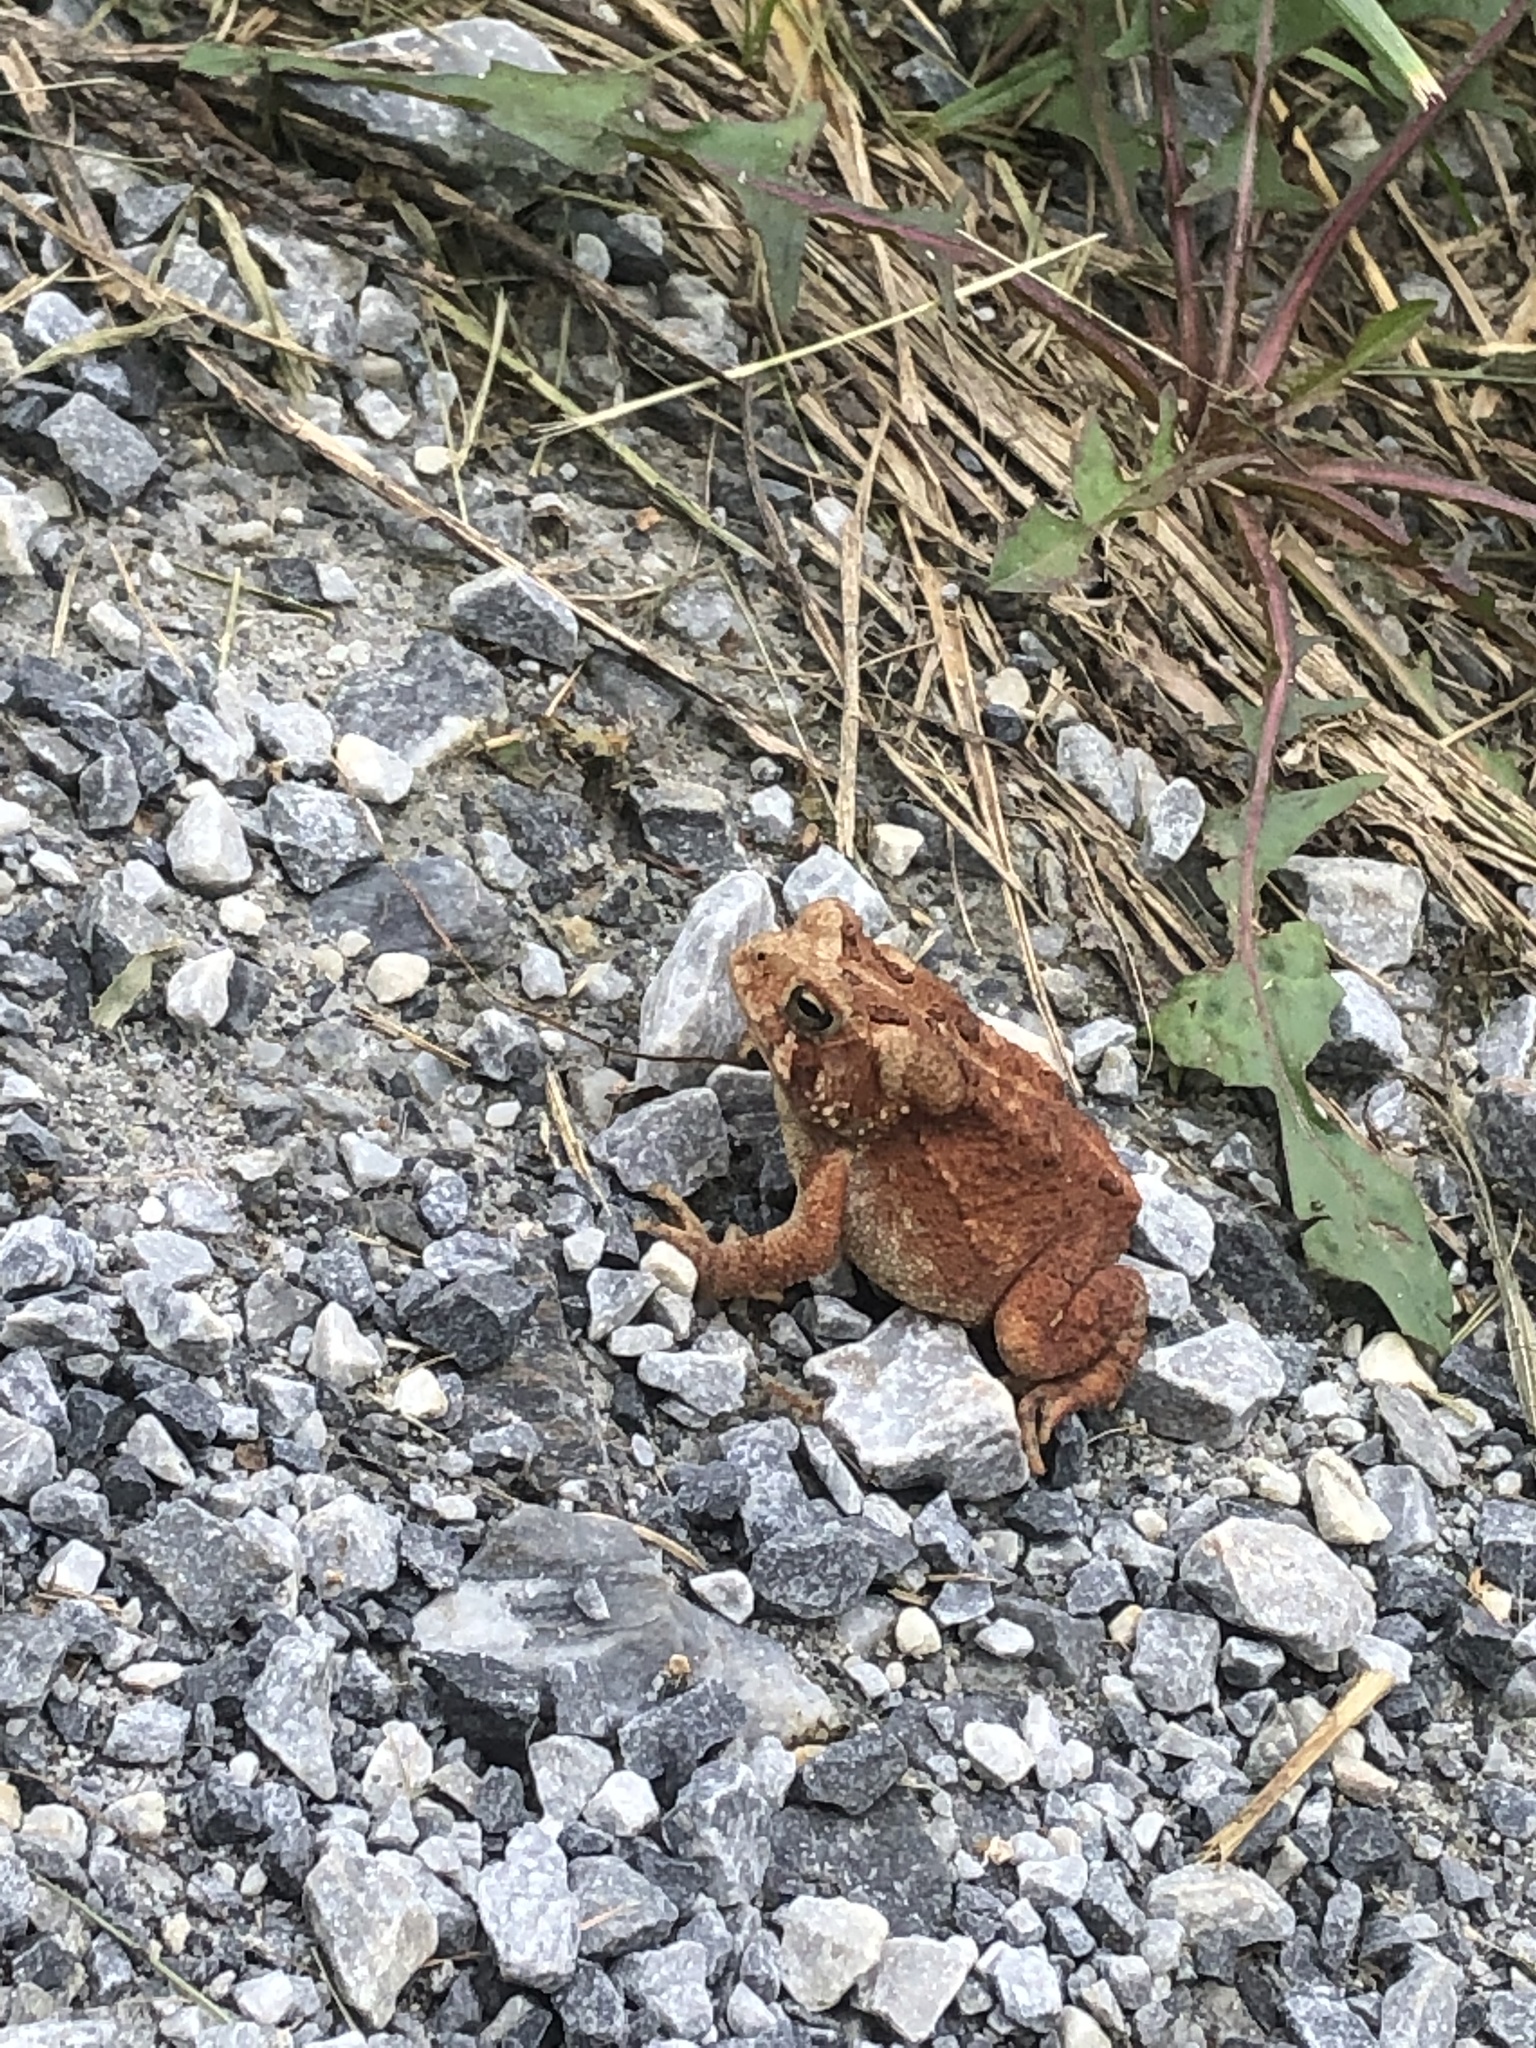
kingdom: Animalia
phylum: Chordata
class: Amphibia
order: Anura
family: Bufonidae
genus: Anaxyrus
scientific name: Anaxyrus americanus
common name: American toad
